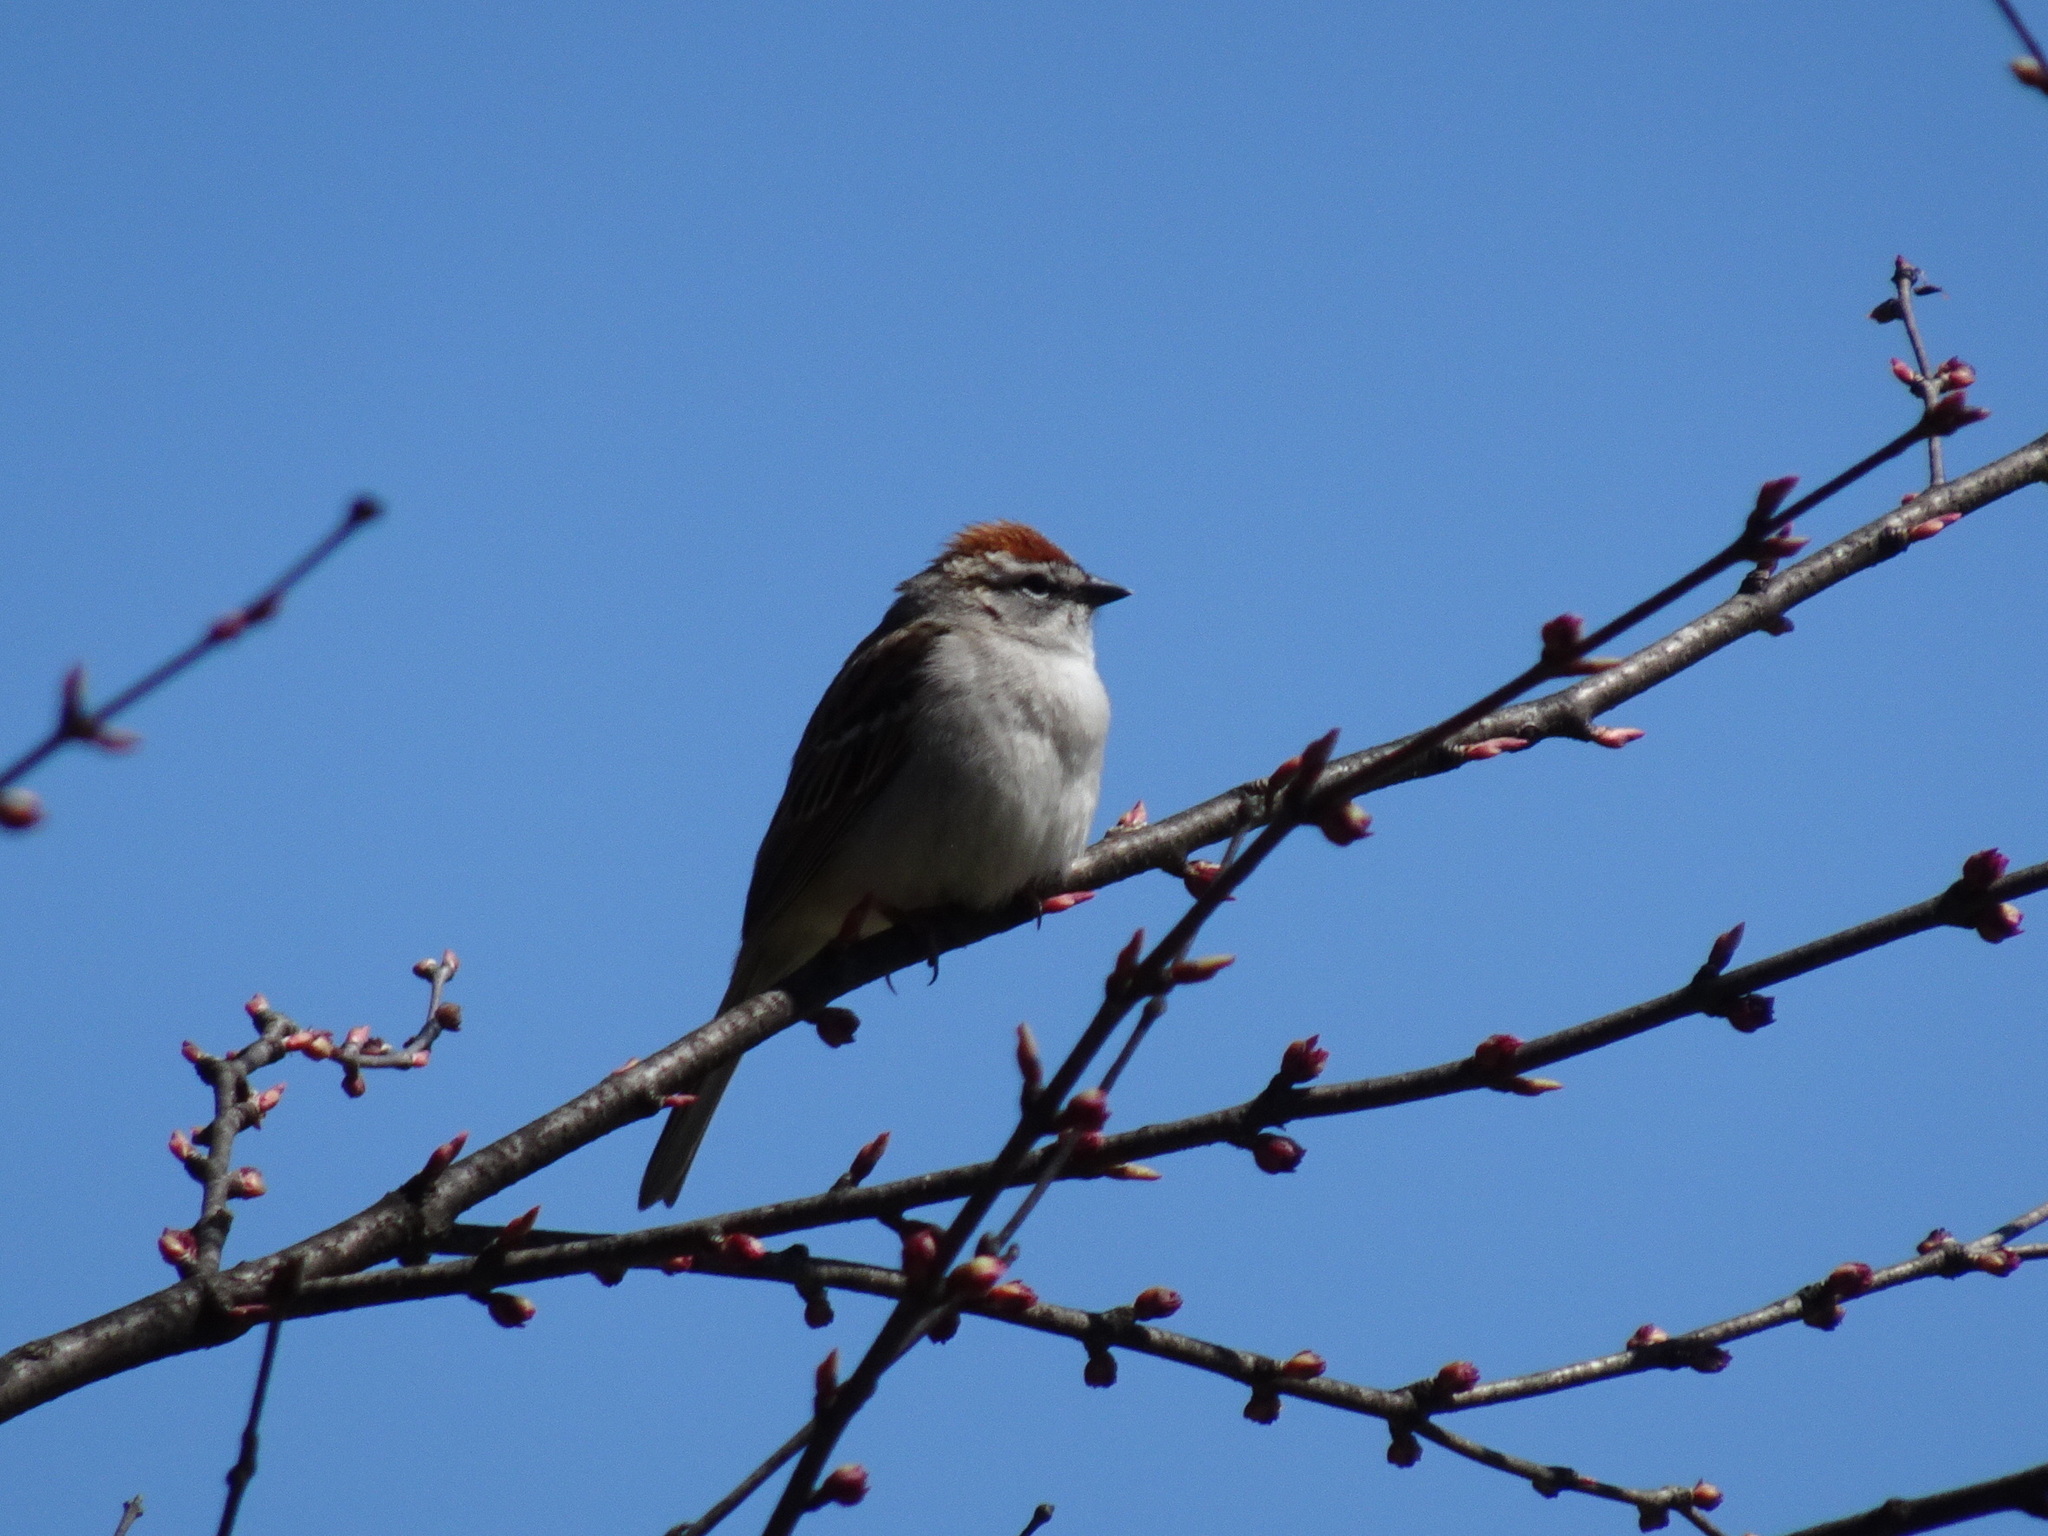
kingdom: Animalia
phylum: Chordata
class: Aves
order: Passeriformes
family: Passerellidae
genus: Spizella
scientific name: Spizella passerina
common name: Chipping sparrow
